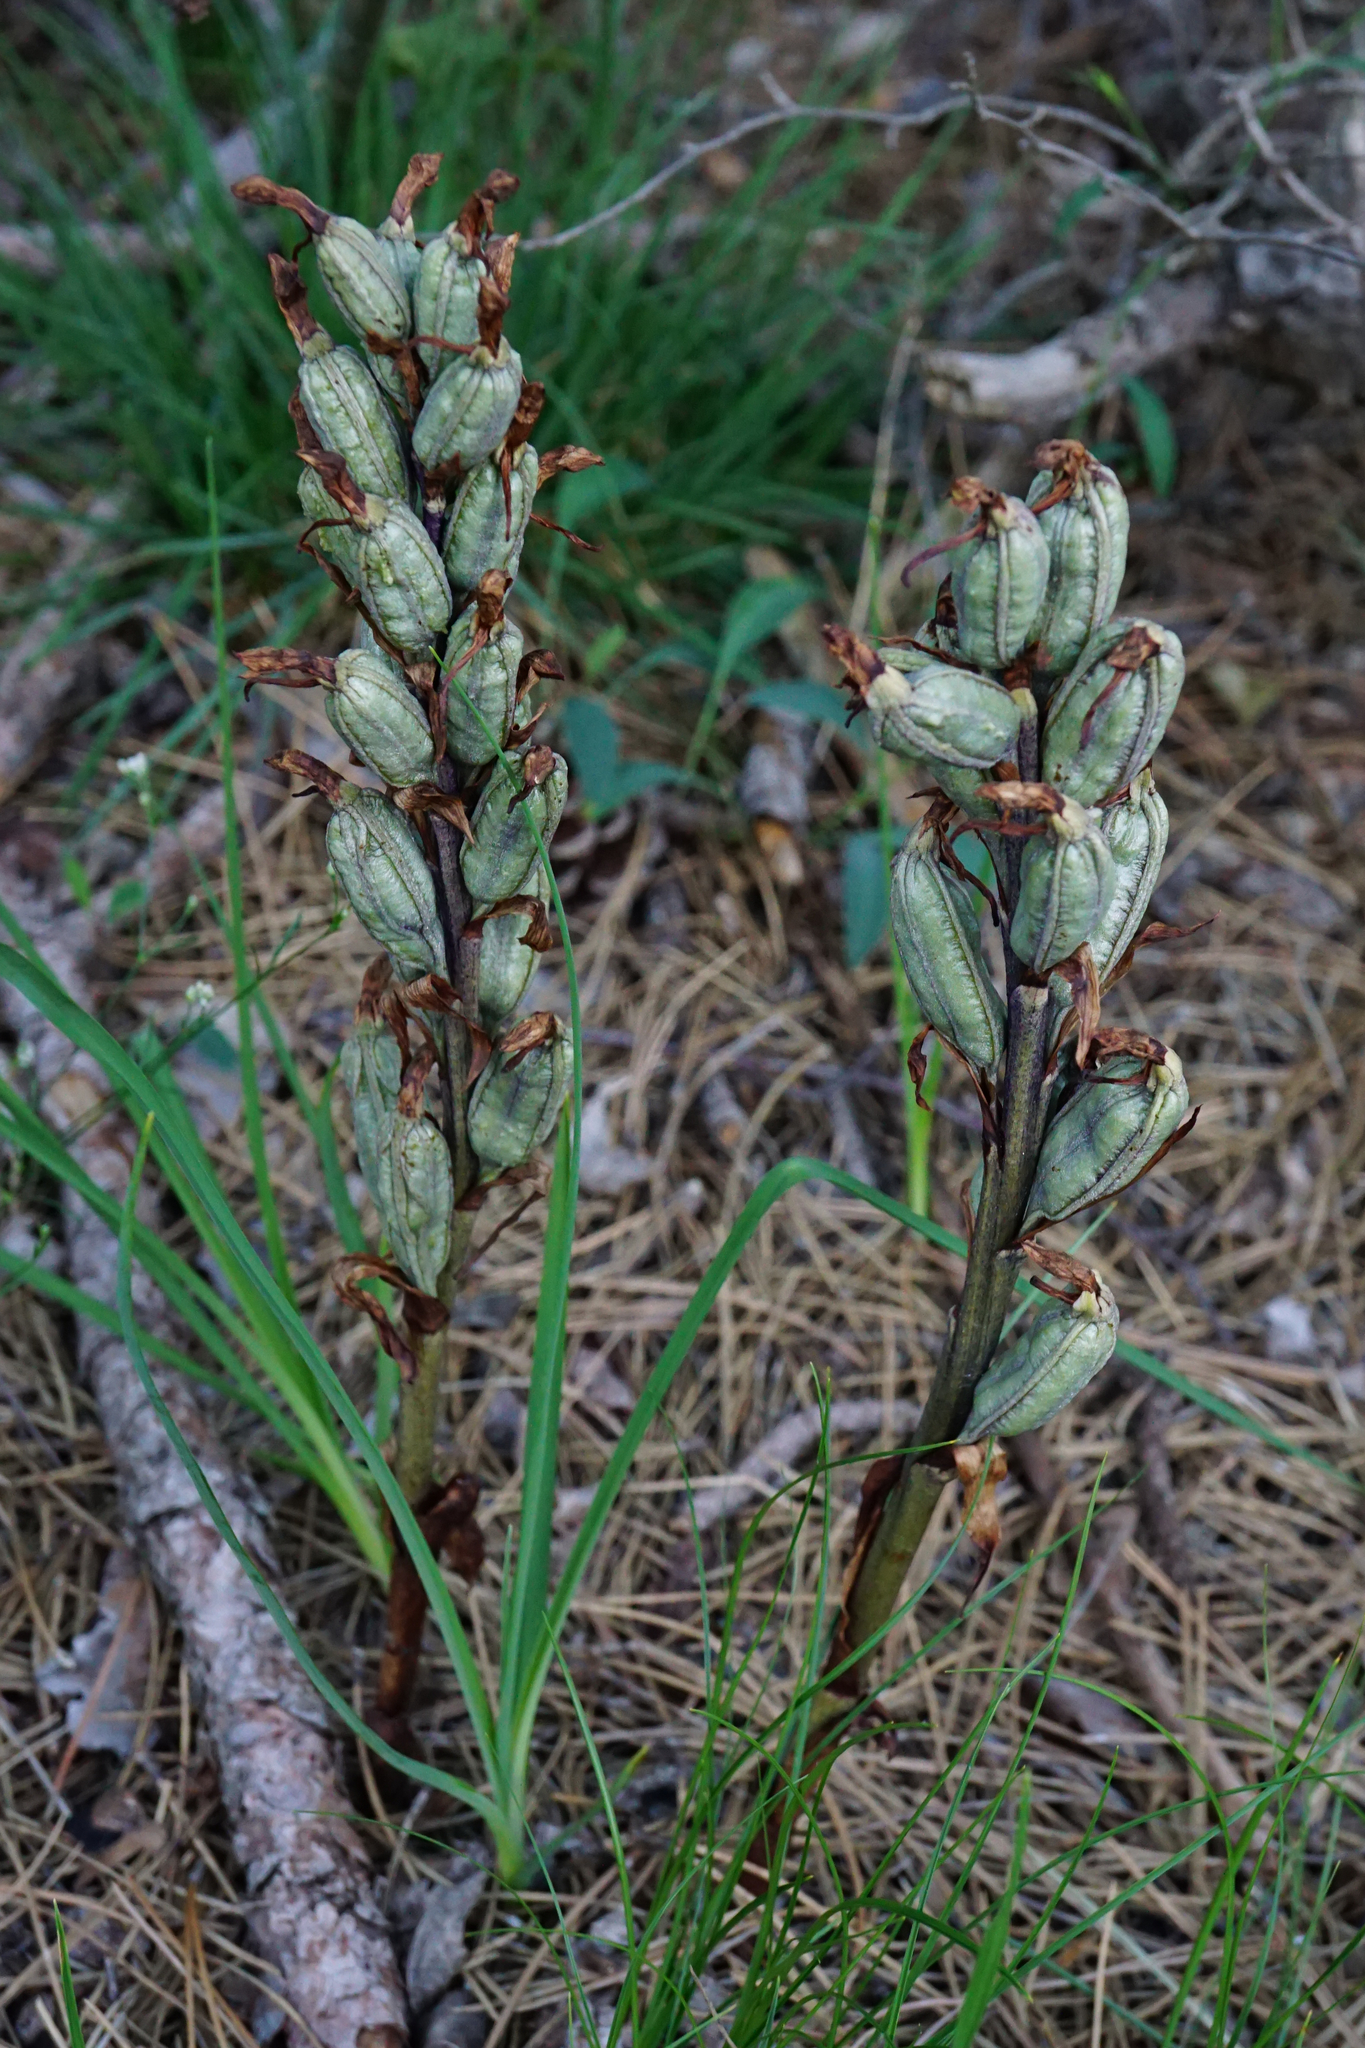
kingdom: Plantae
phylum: Tracheophyta
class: Liliopsida
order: Asparagales
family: Orchidaceae
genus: Limodorum
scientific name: Limodorum abortivum
